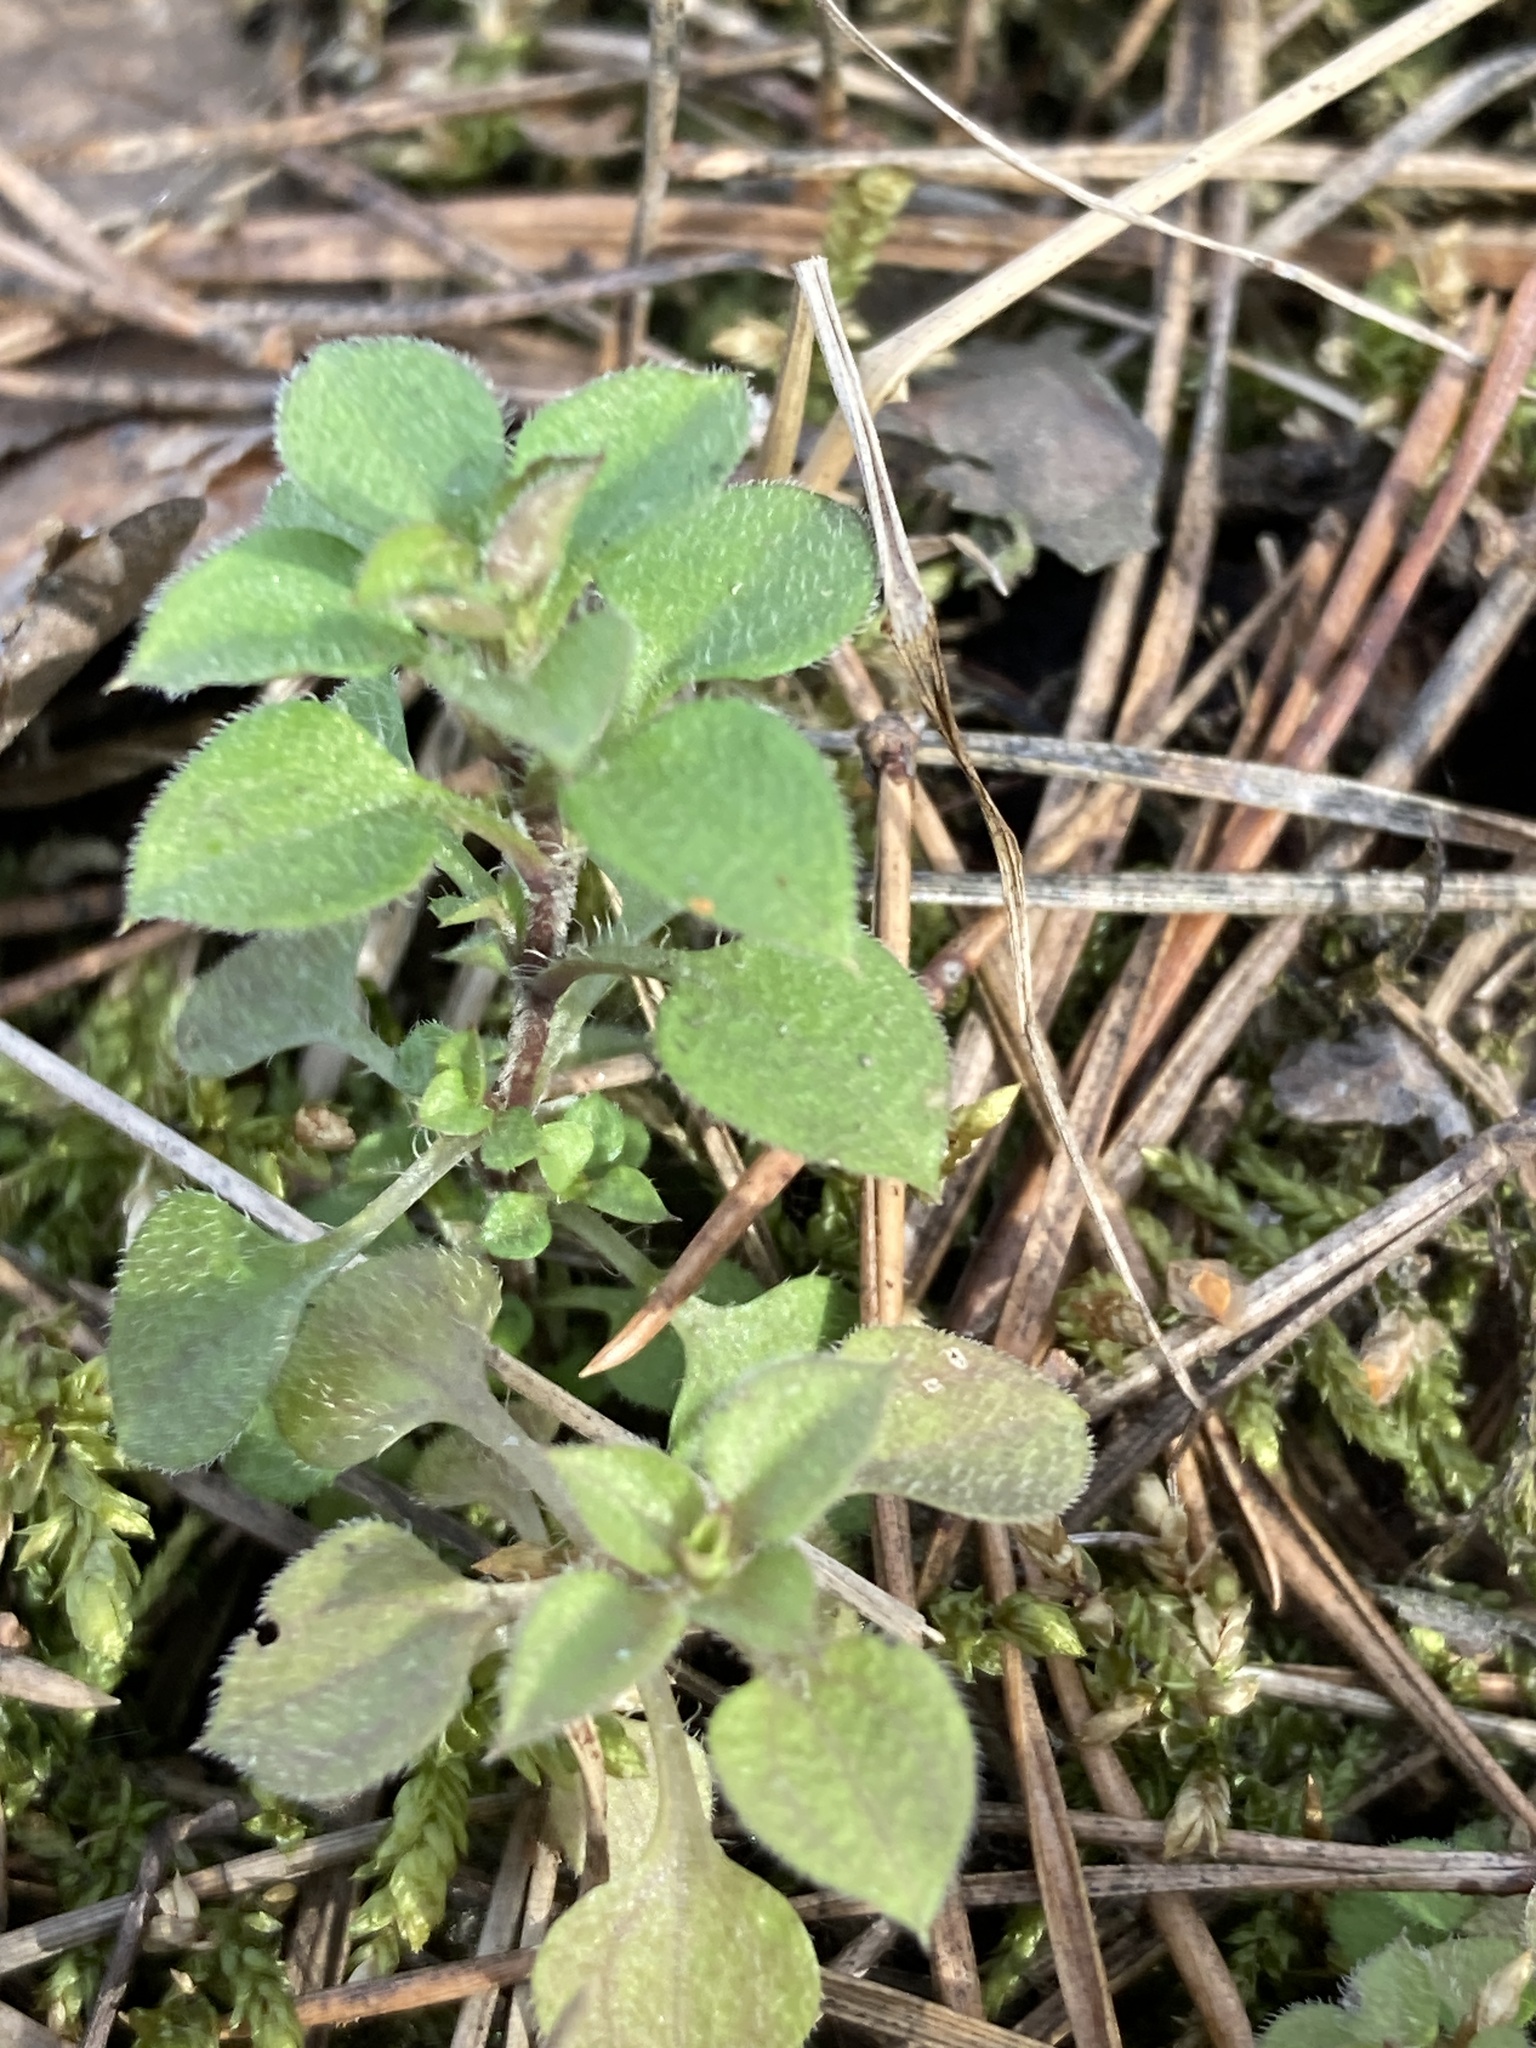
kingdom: Plantae
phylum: Tracheophyta
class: Magnoliopsida
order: Caryophyllales
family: Caryophyllaceae
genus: Moehringia
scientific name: Moehringia trinervia
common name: Three-nerved sandwort
